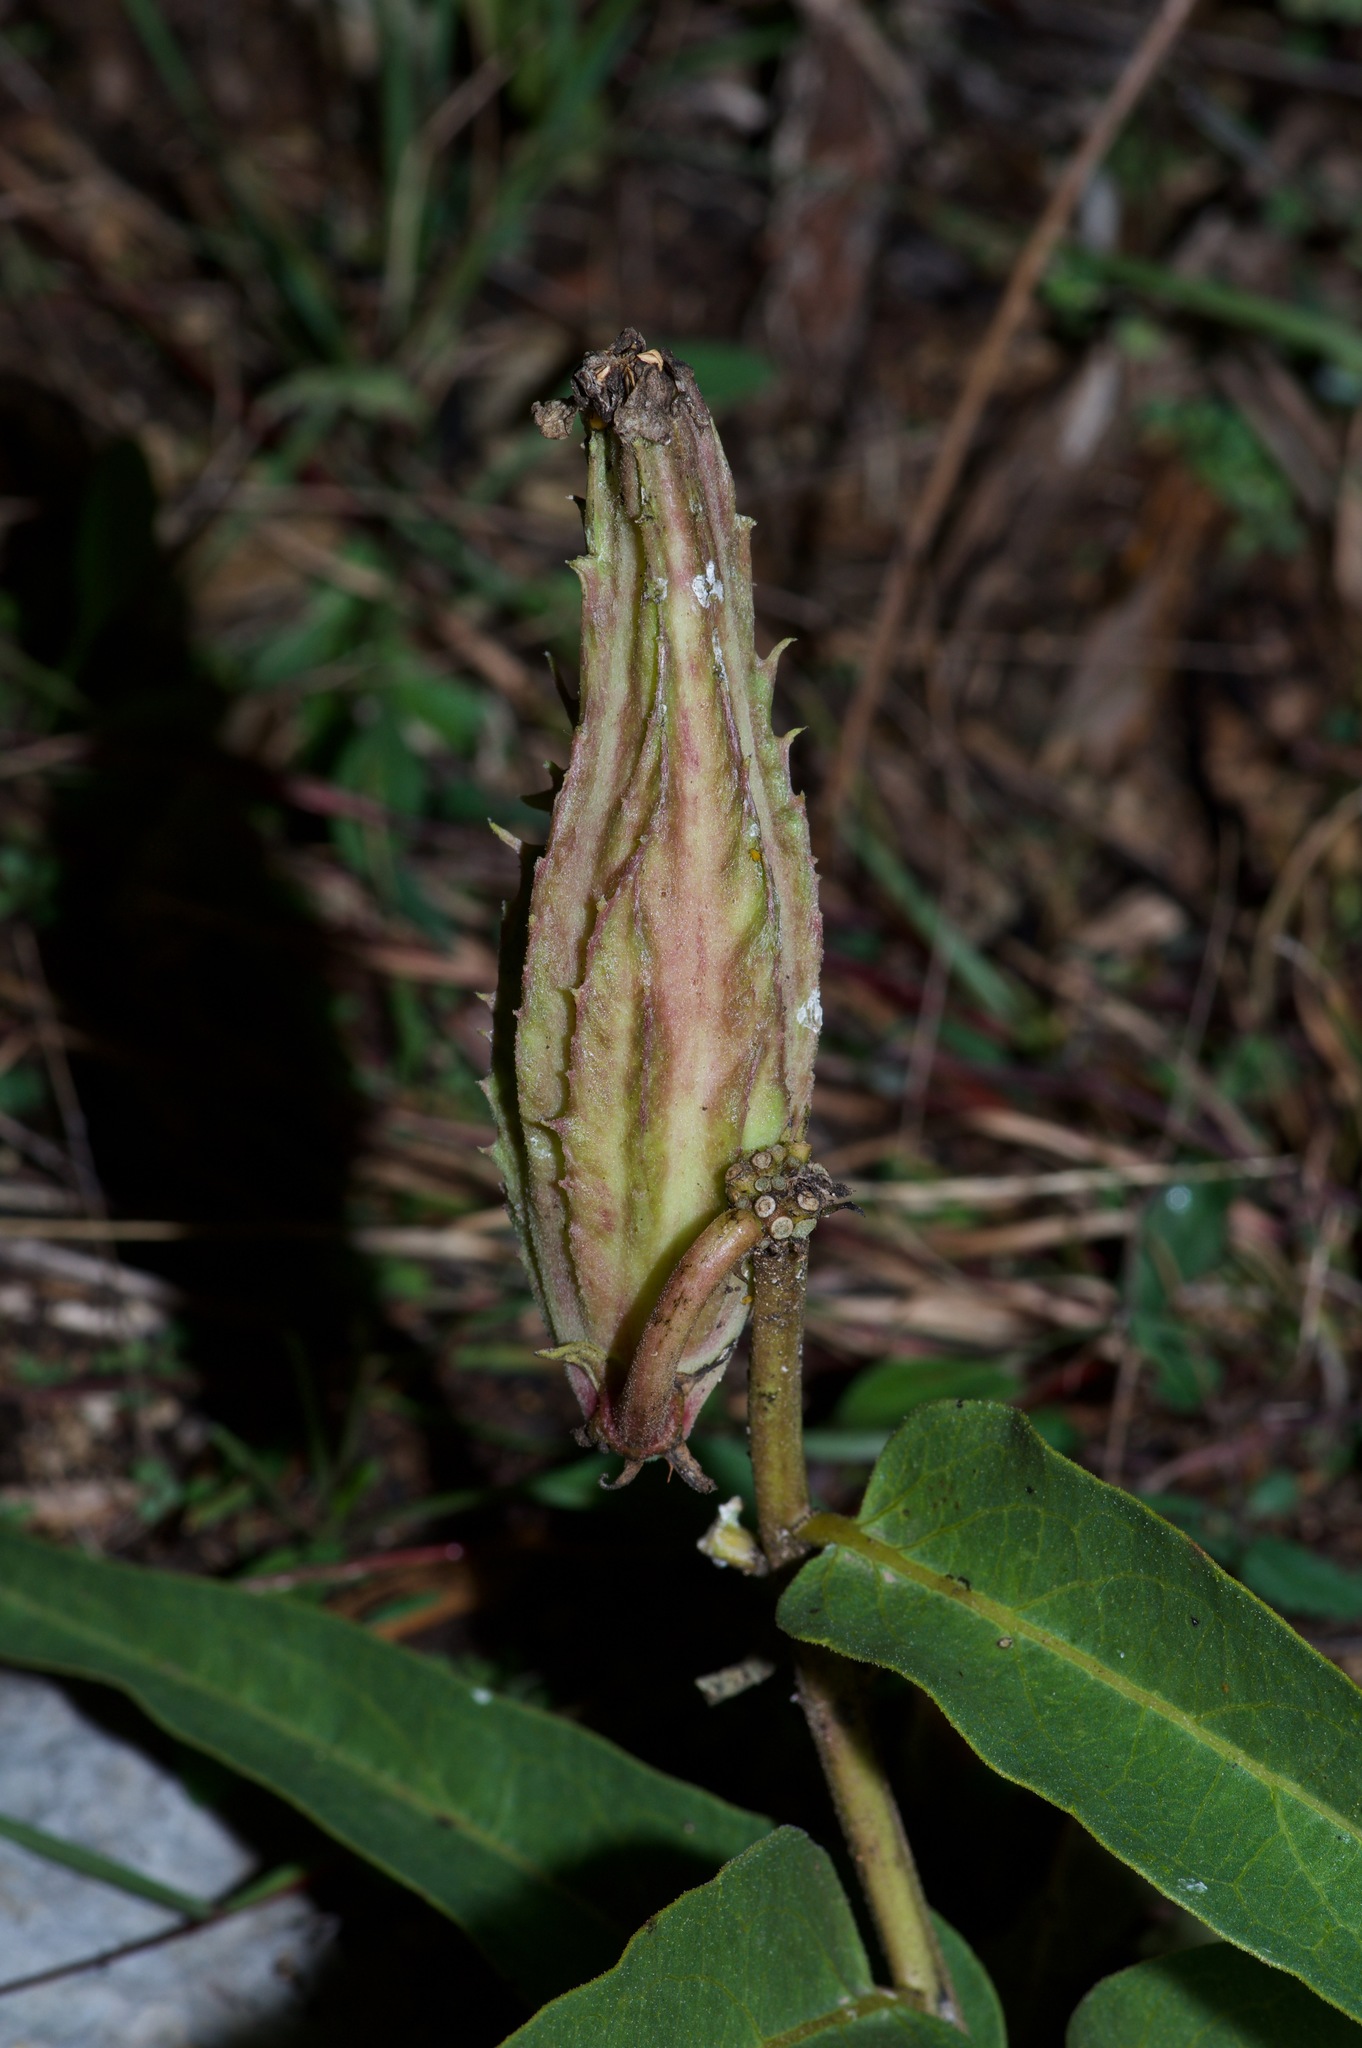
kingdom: Plantae
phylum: Tracheophyta
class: Magnoliopsida
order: Gentianales
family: Apocynaceae
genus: Asclepias
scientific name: Asclepias asperula
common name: Antelope horns
